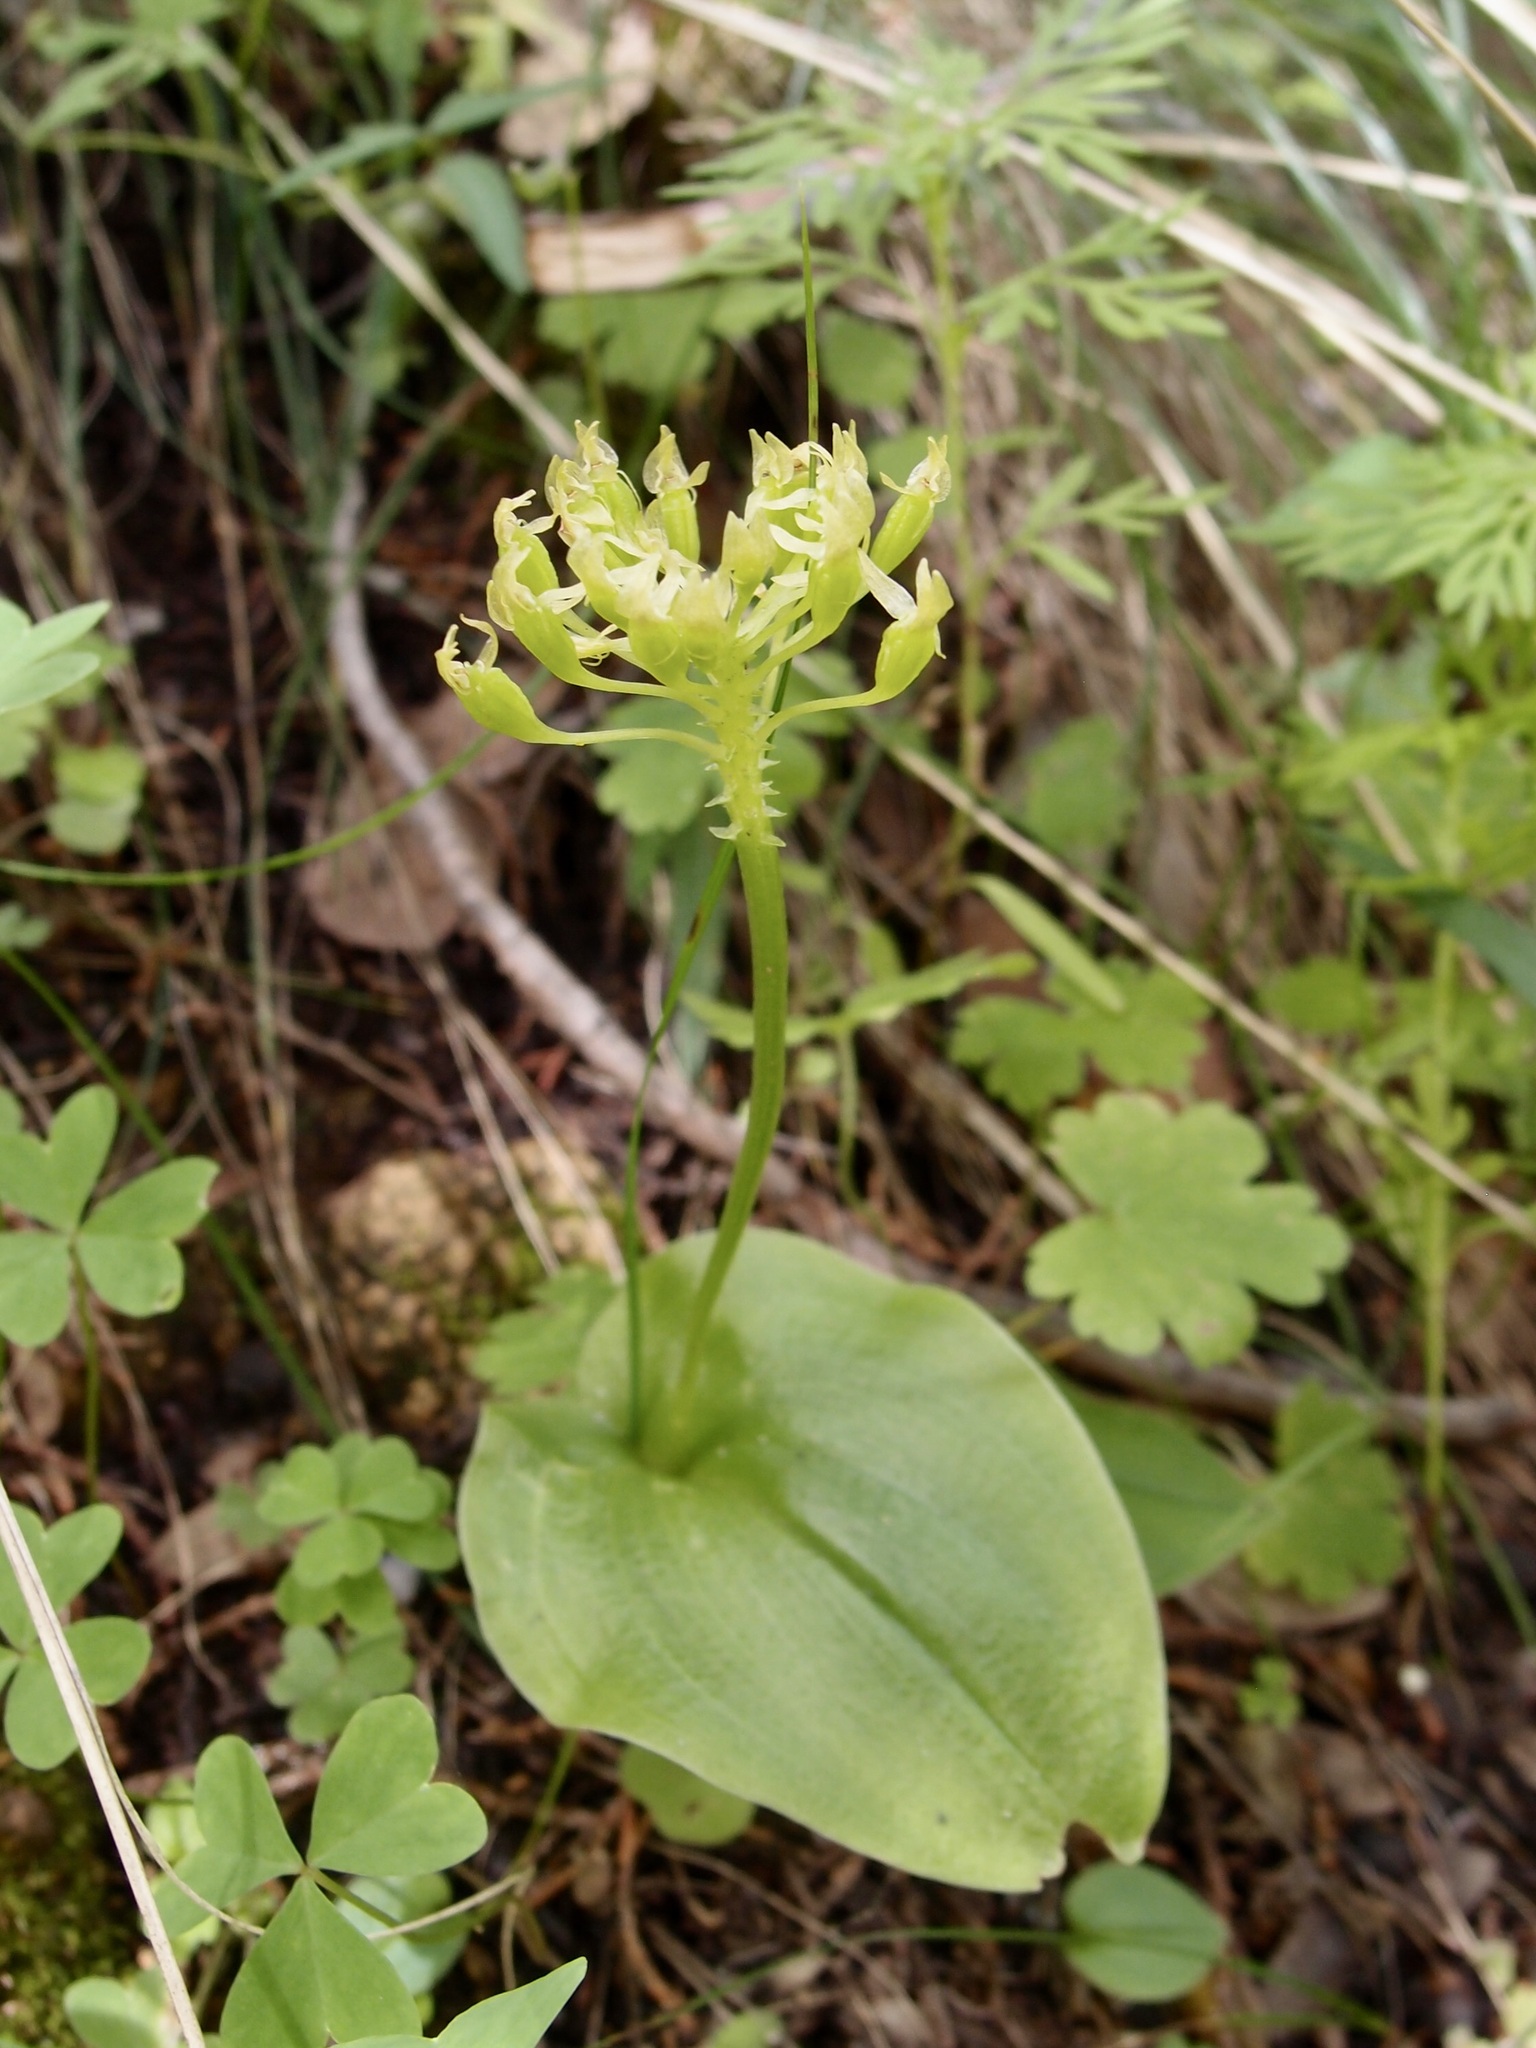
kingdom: Plantae
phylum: Tracheophyta
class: Liliopsida
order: Asparagales
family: Orchidaceae
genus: Malaxis
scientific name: Malaxis brachystachys
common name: Huachuca adder's-mouth
